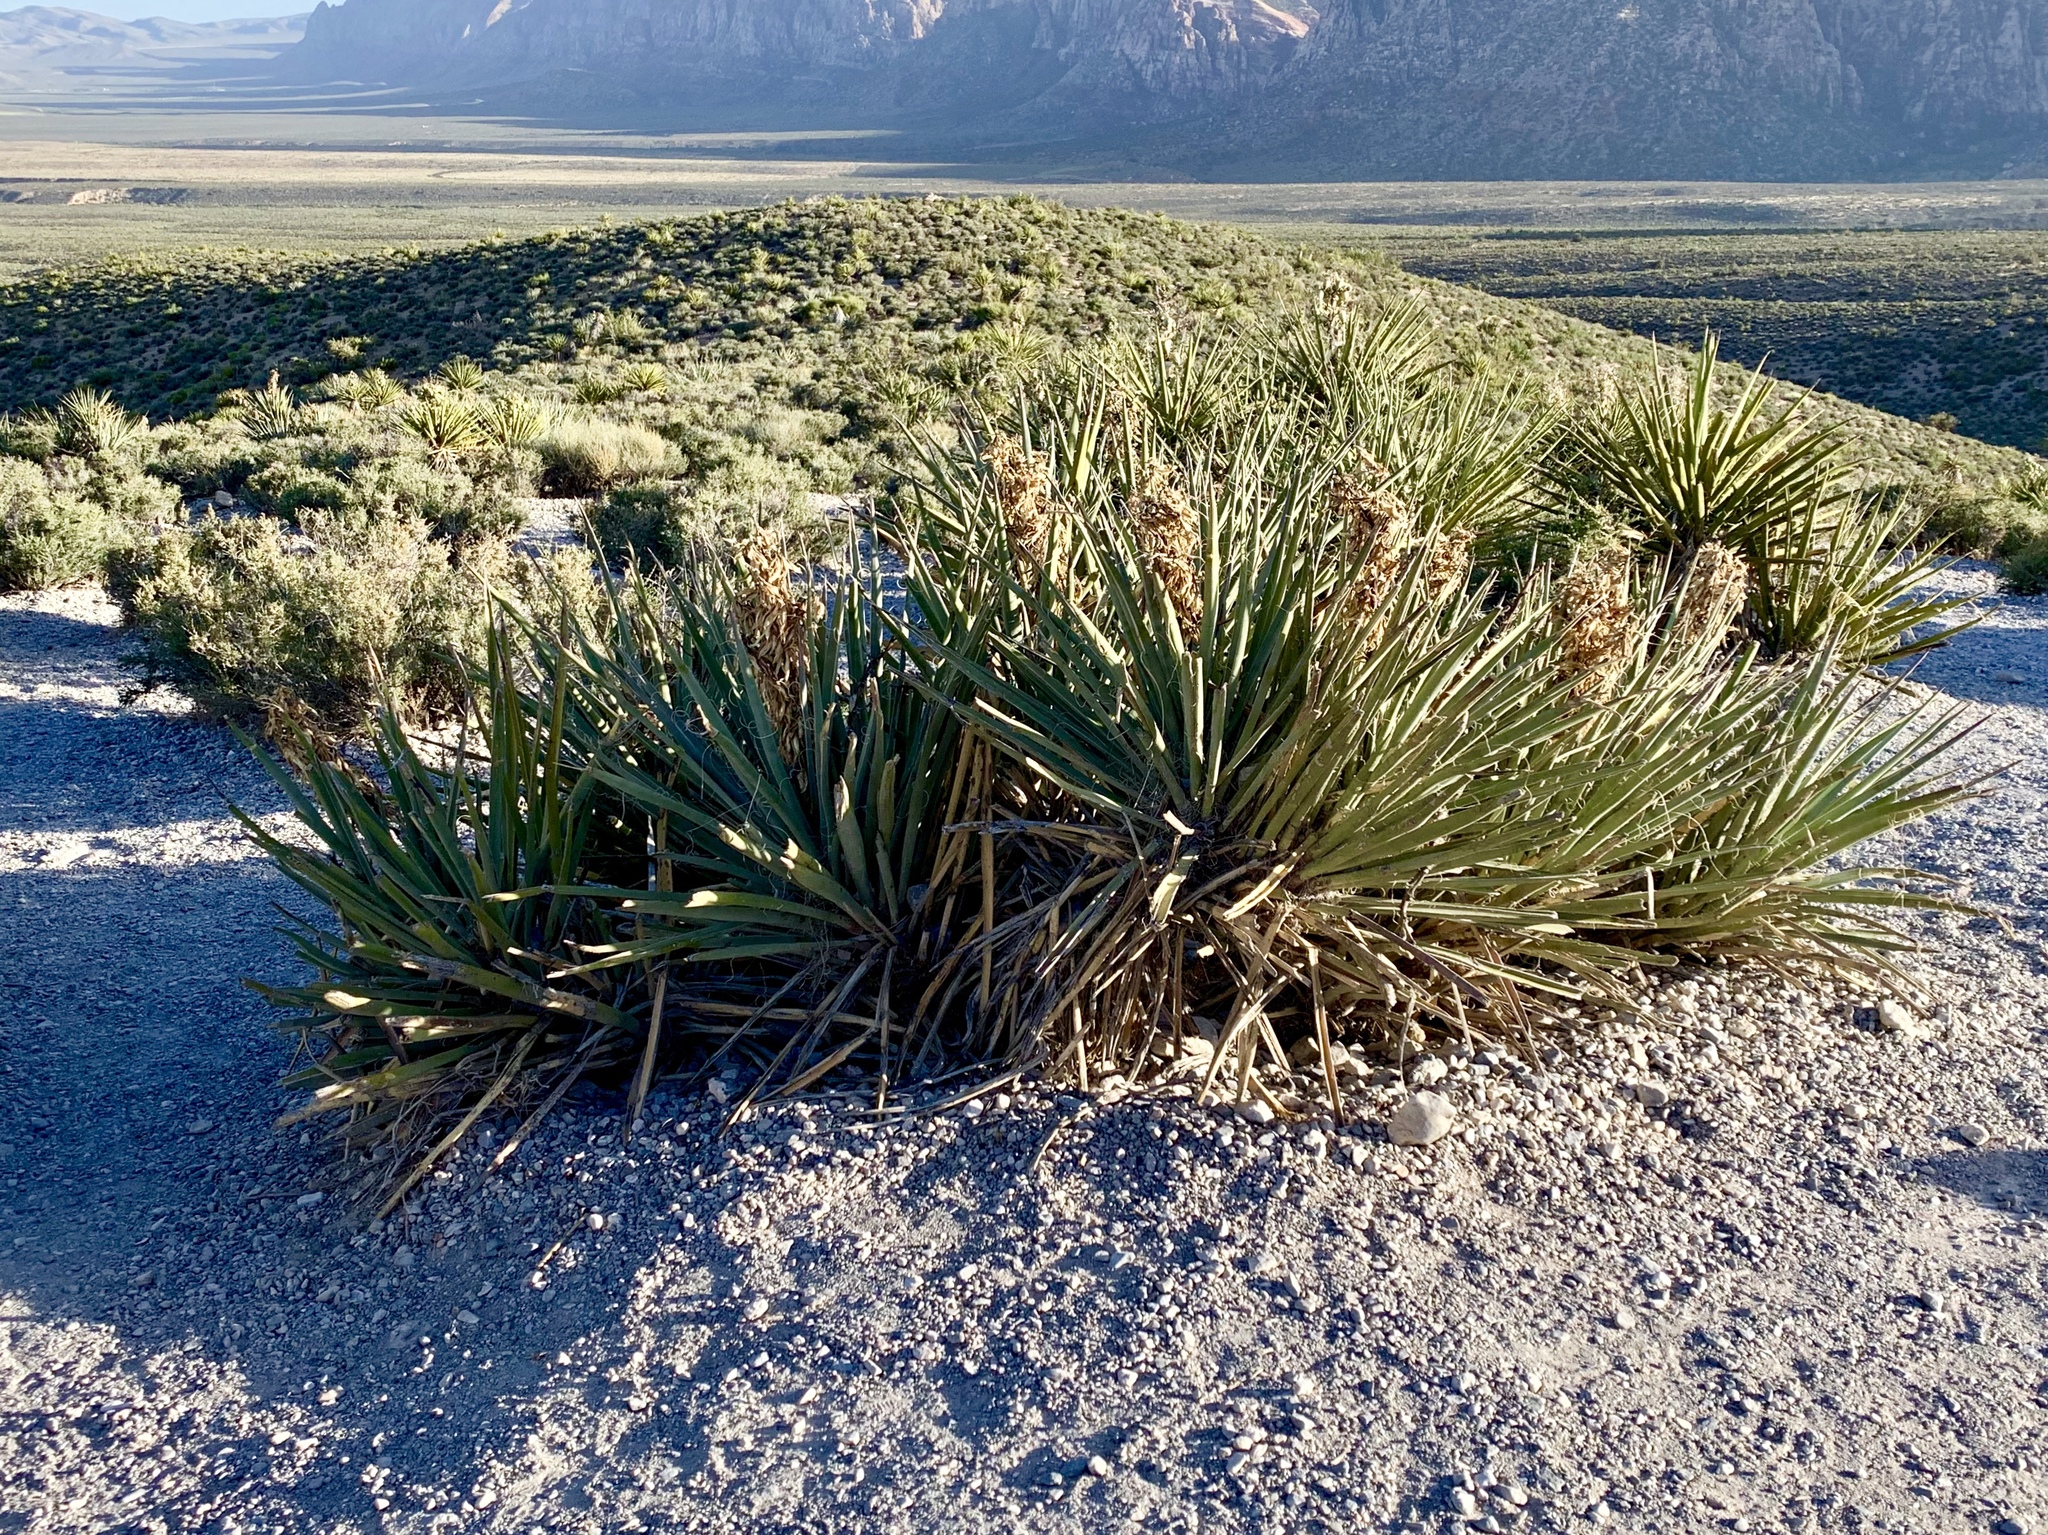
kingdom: Plantae
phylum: Tracheophyta
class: Liliopsida
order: Asparagales
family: Asparagaceae
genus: Yucca
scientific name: Yucca baccata
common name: Banana yucca
